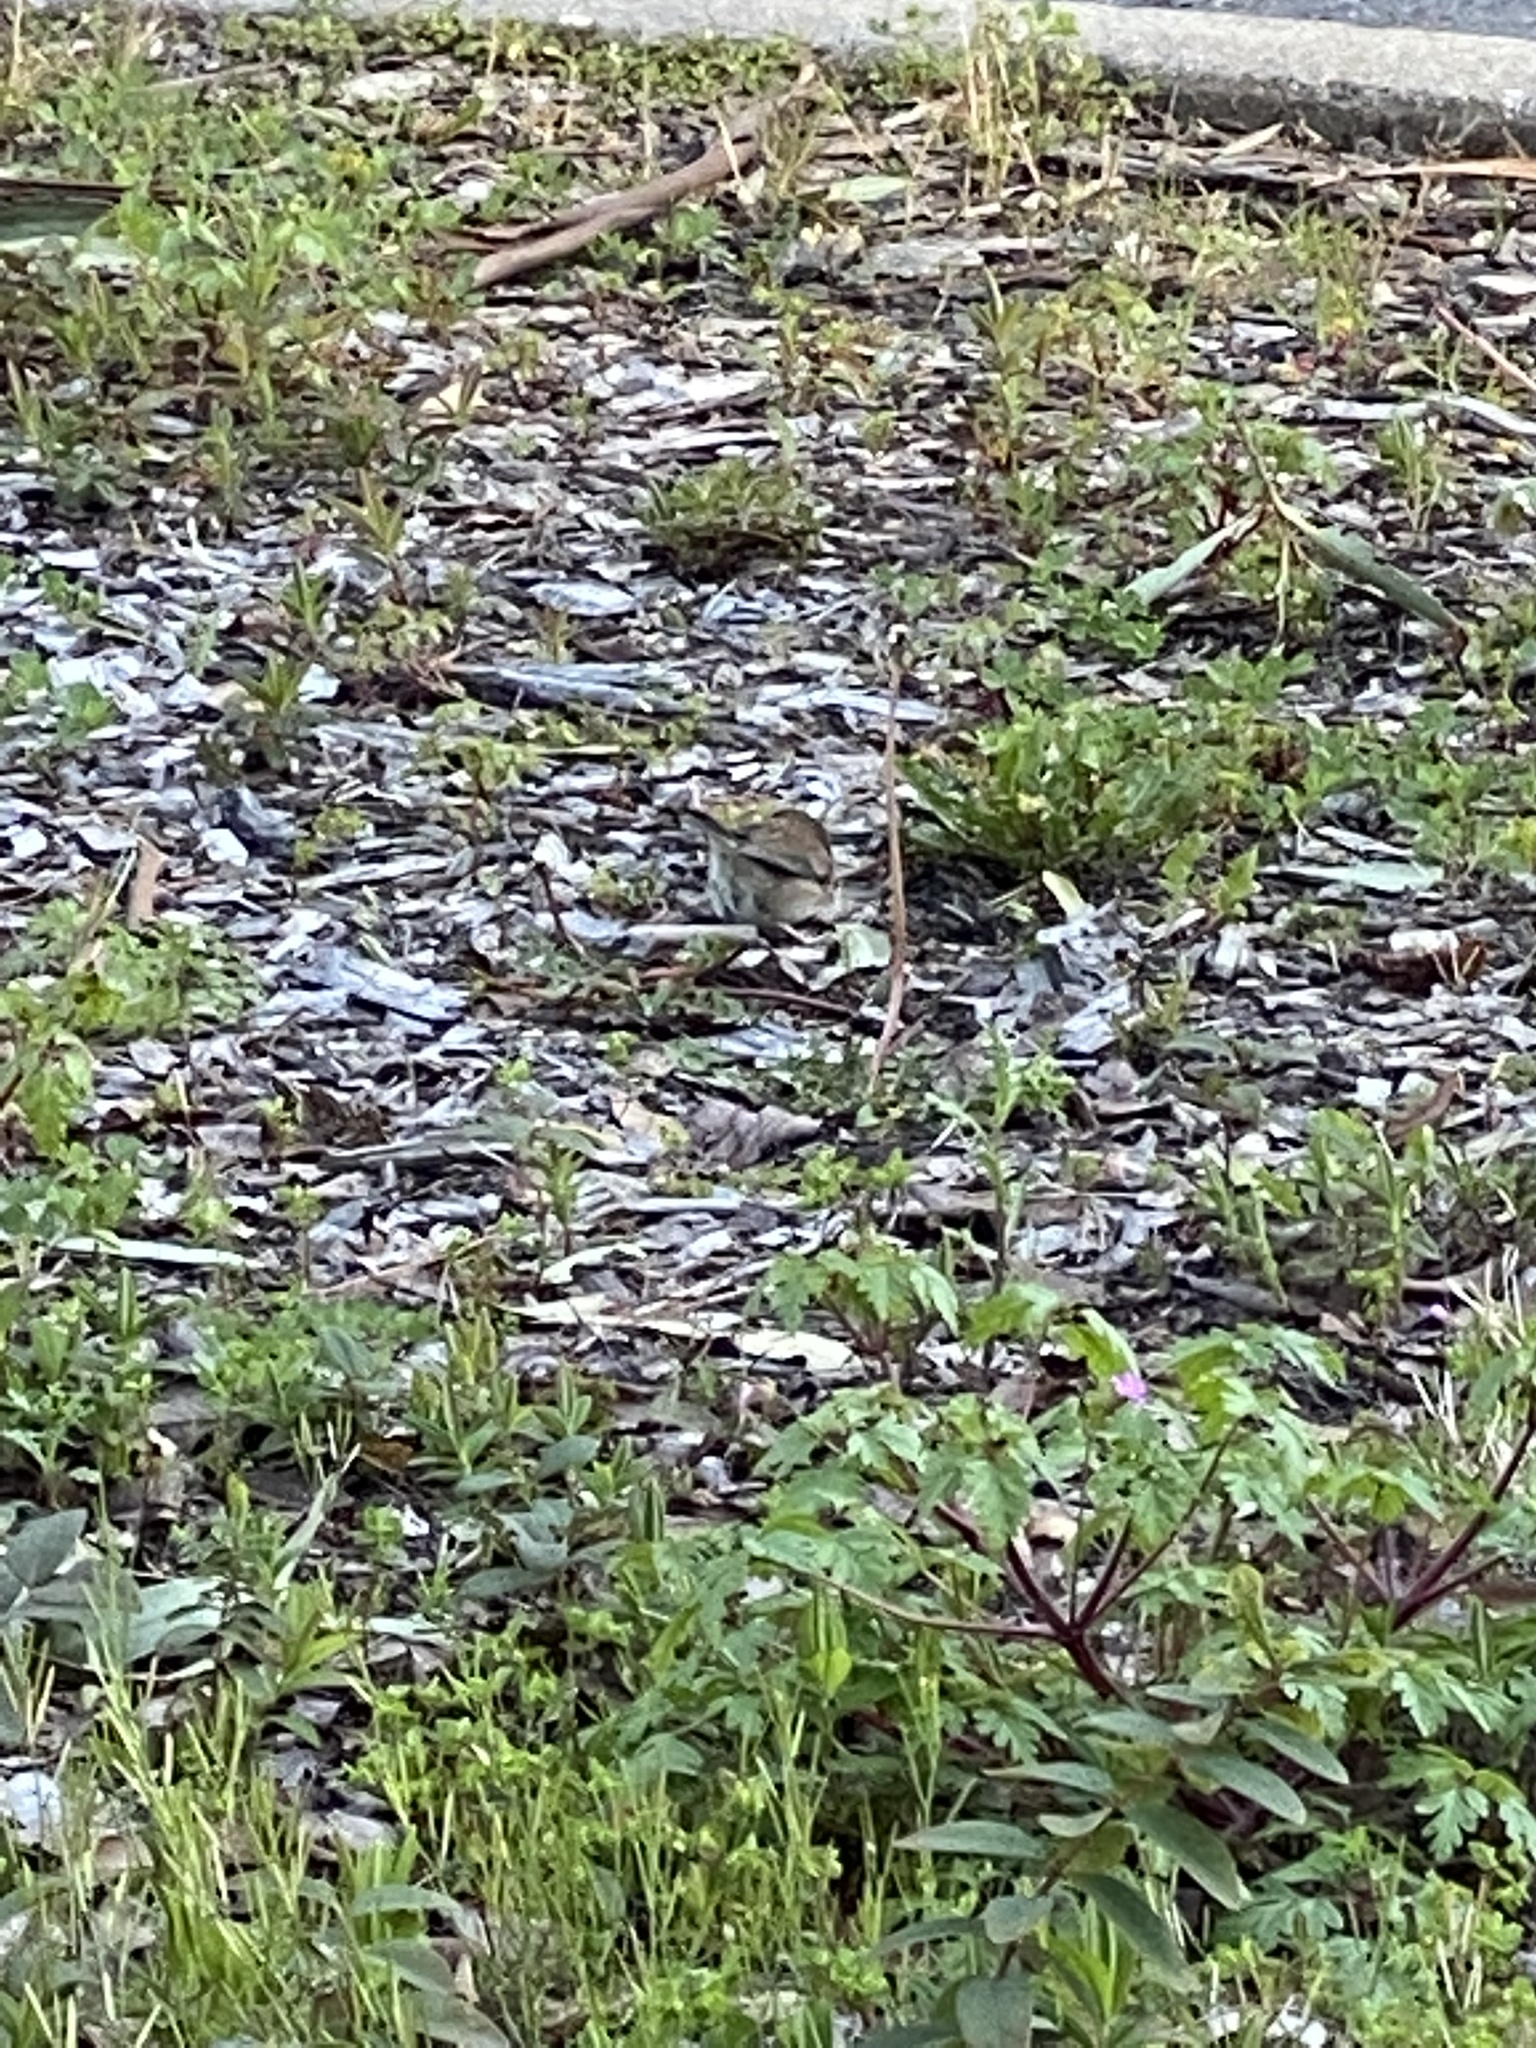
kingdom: Animalia
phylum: Chordata
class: Aves
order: Passeriformes
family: Passerellidae
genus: Junco
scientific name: Junco hyemalis
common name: Dark-eyed junco
